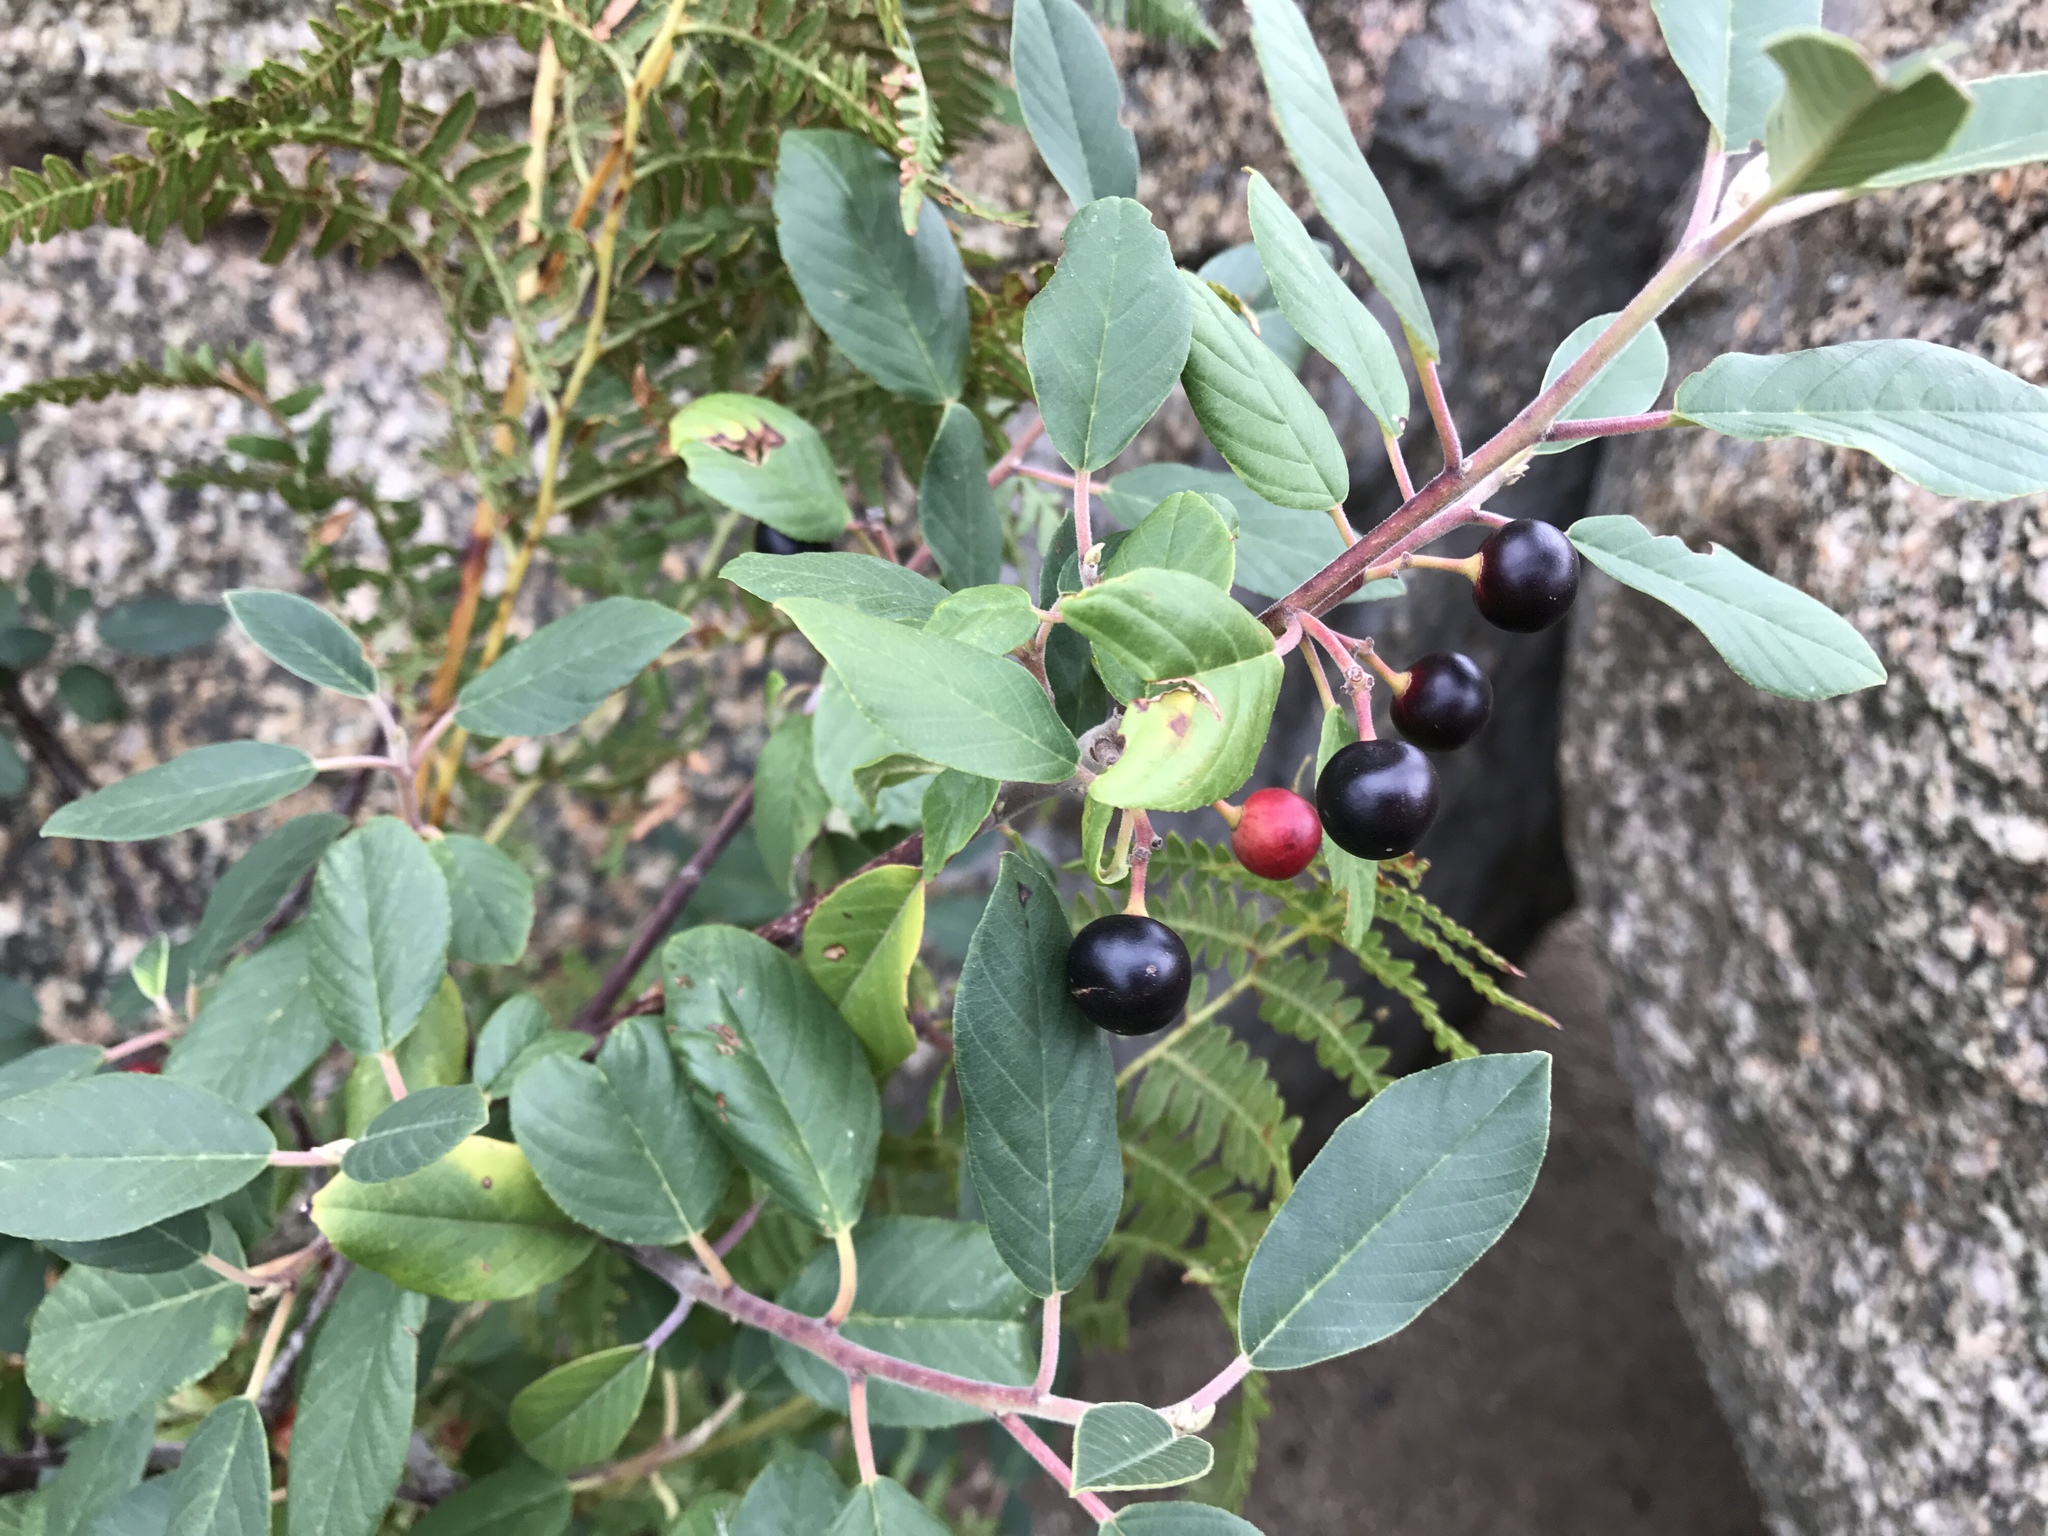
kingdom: Plantae
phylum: Tracheophyta
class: Magnoliopsida
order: Rosales
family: Rhamnaceae
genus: Frangula
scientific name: Frangula californica
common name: California buckthorn
